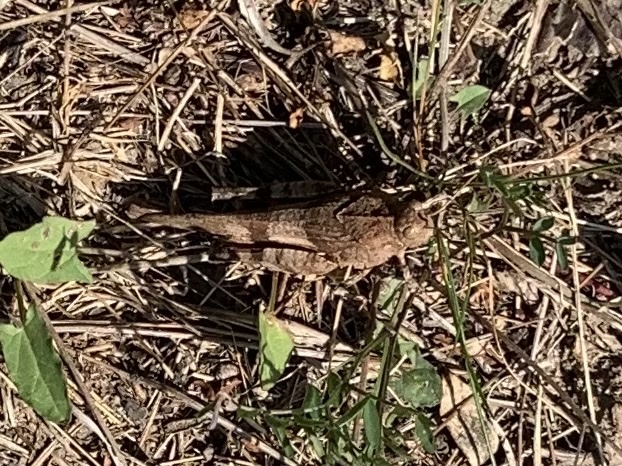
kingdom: Animalia
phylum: Arthropoda
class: Insecta
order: Orthoptera
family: Acrididae
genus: Oedipoda
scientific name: Oedipoda caerulescens
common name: Blue-winged grasshopper
